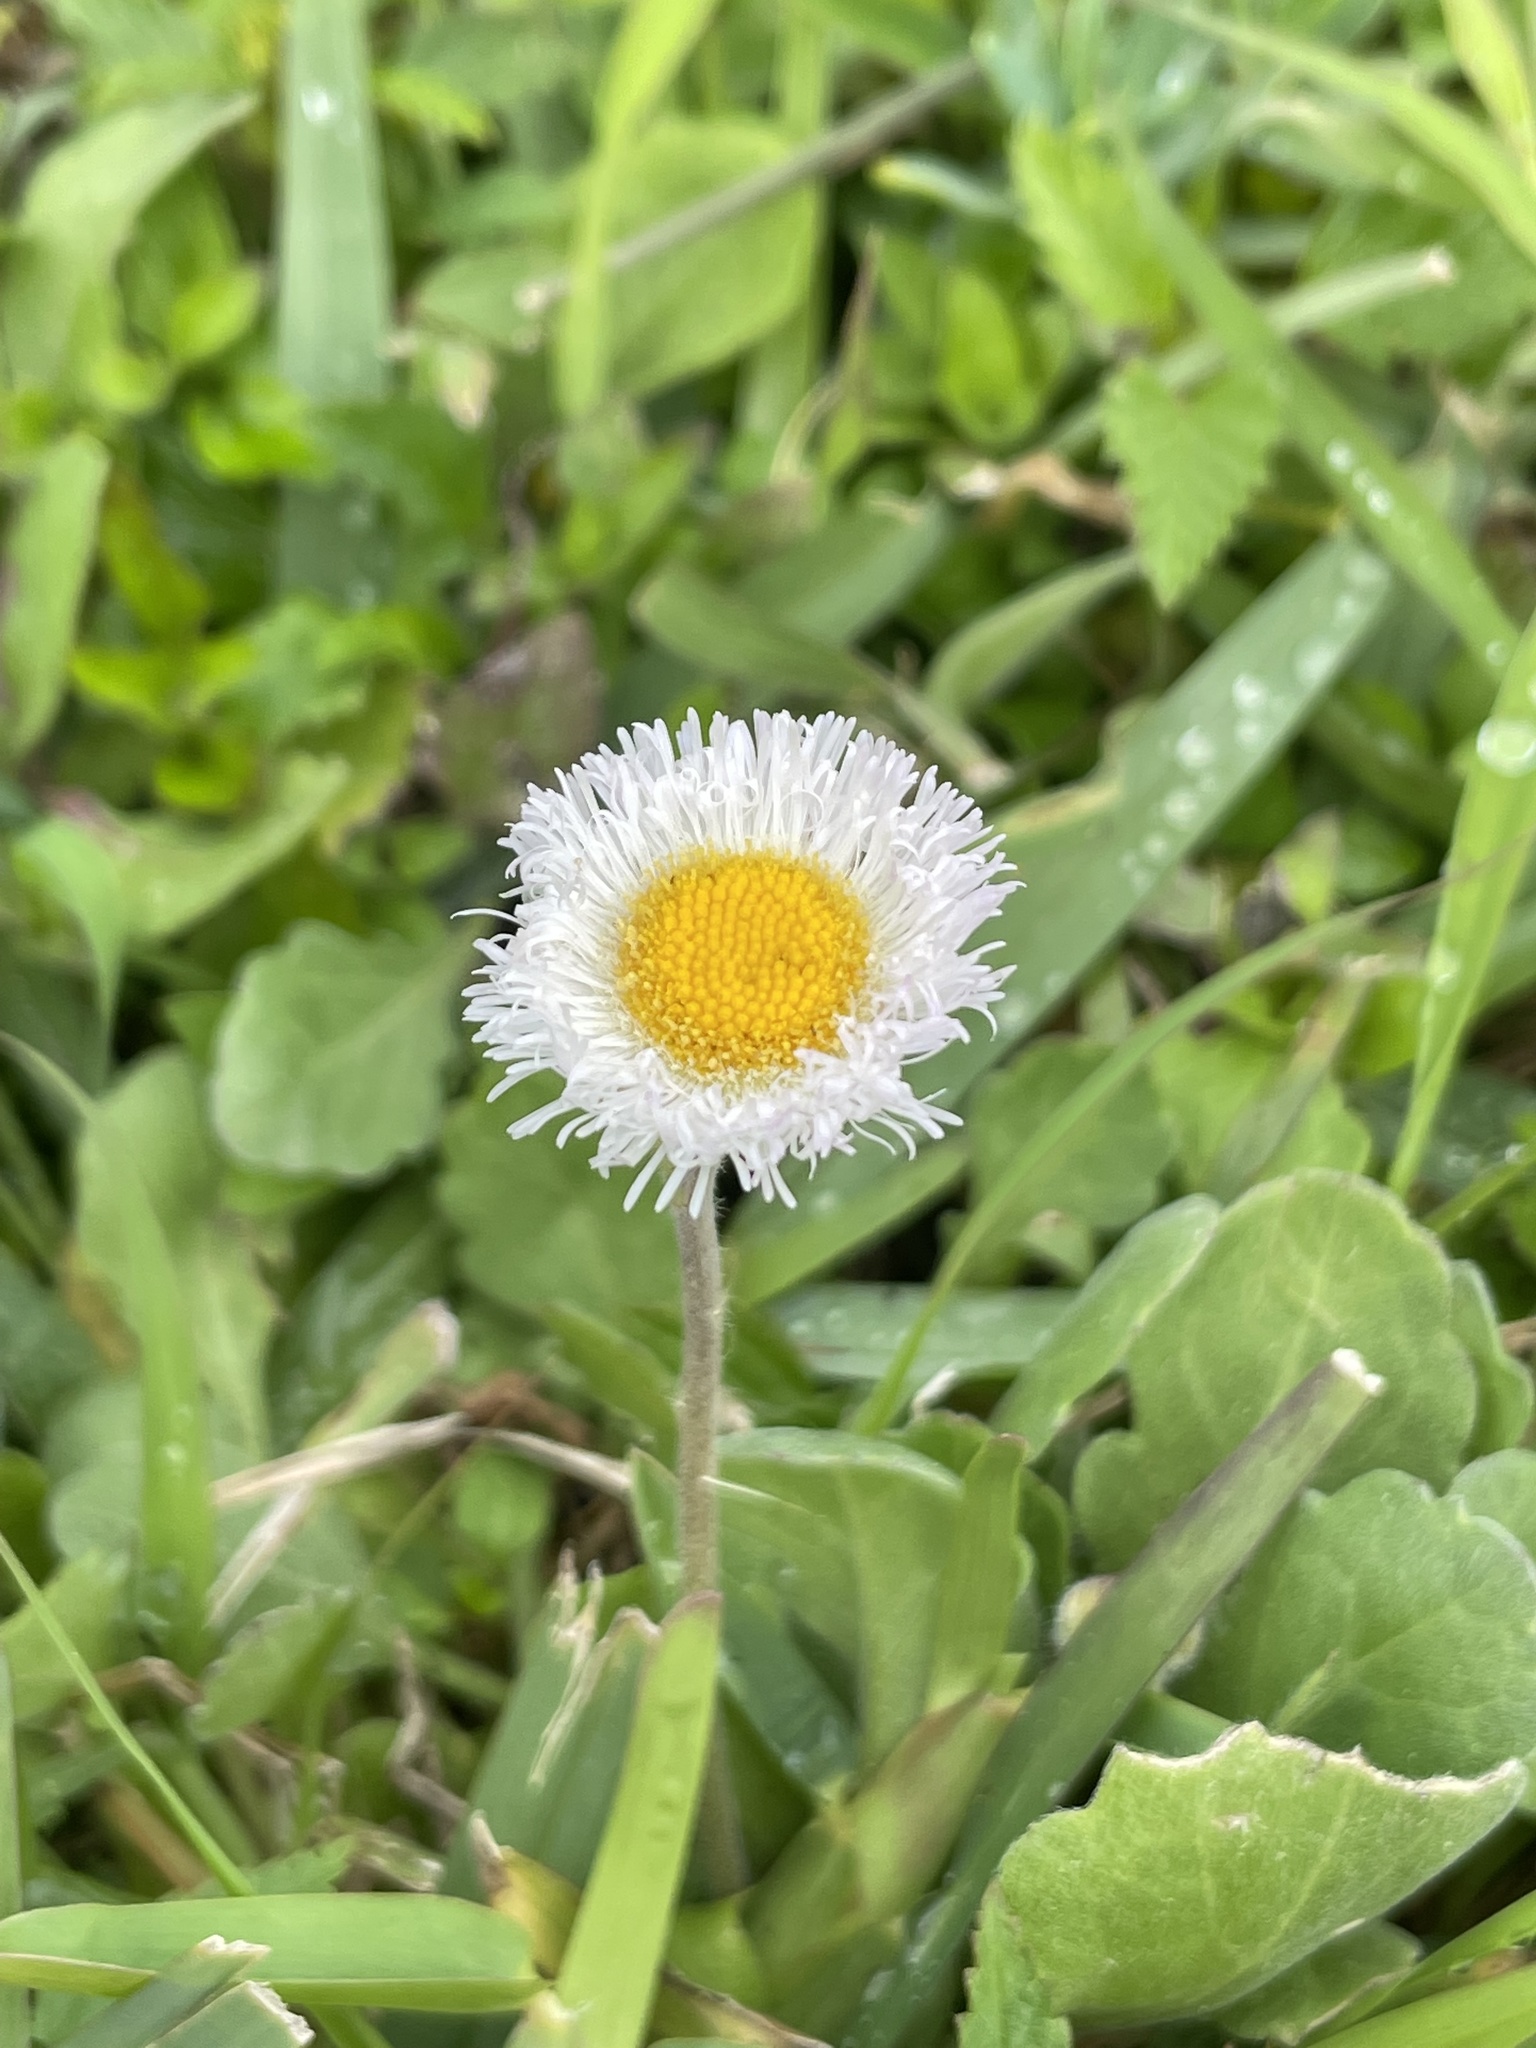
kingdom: Plantae
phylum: Tracheophyta
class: Magnoliopsida
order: Asterales
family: Asteraceae
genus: Erigeron
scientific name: Erigeron procumbens
